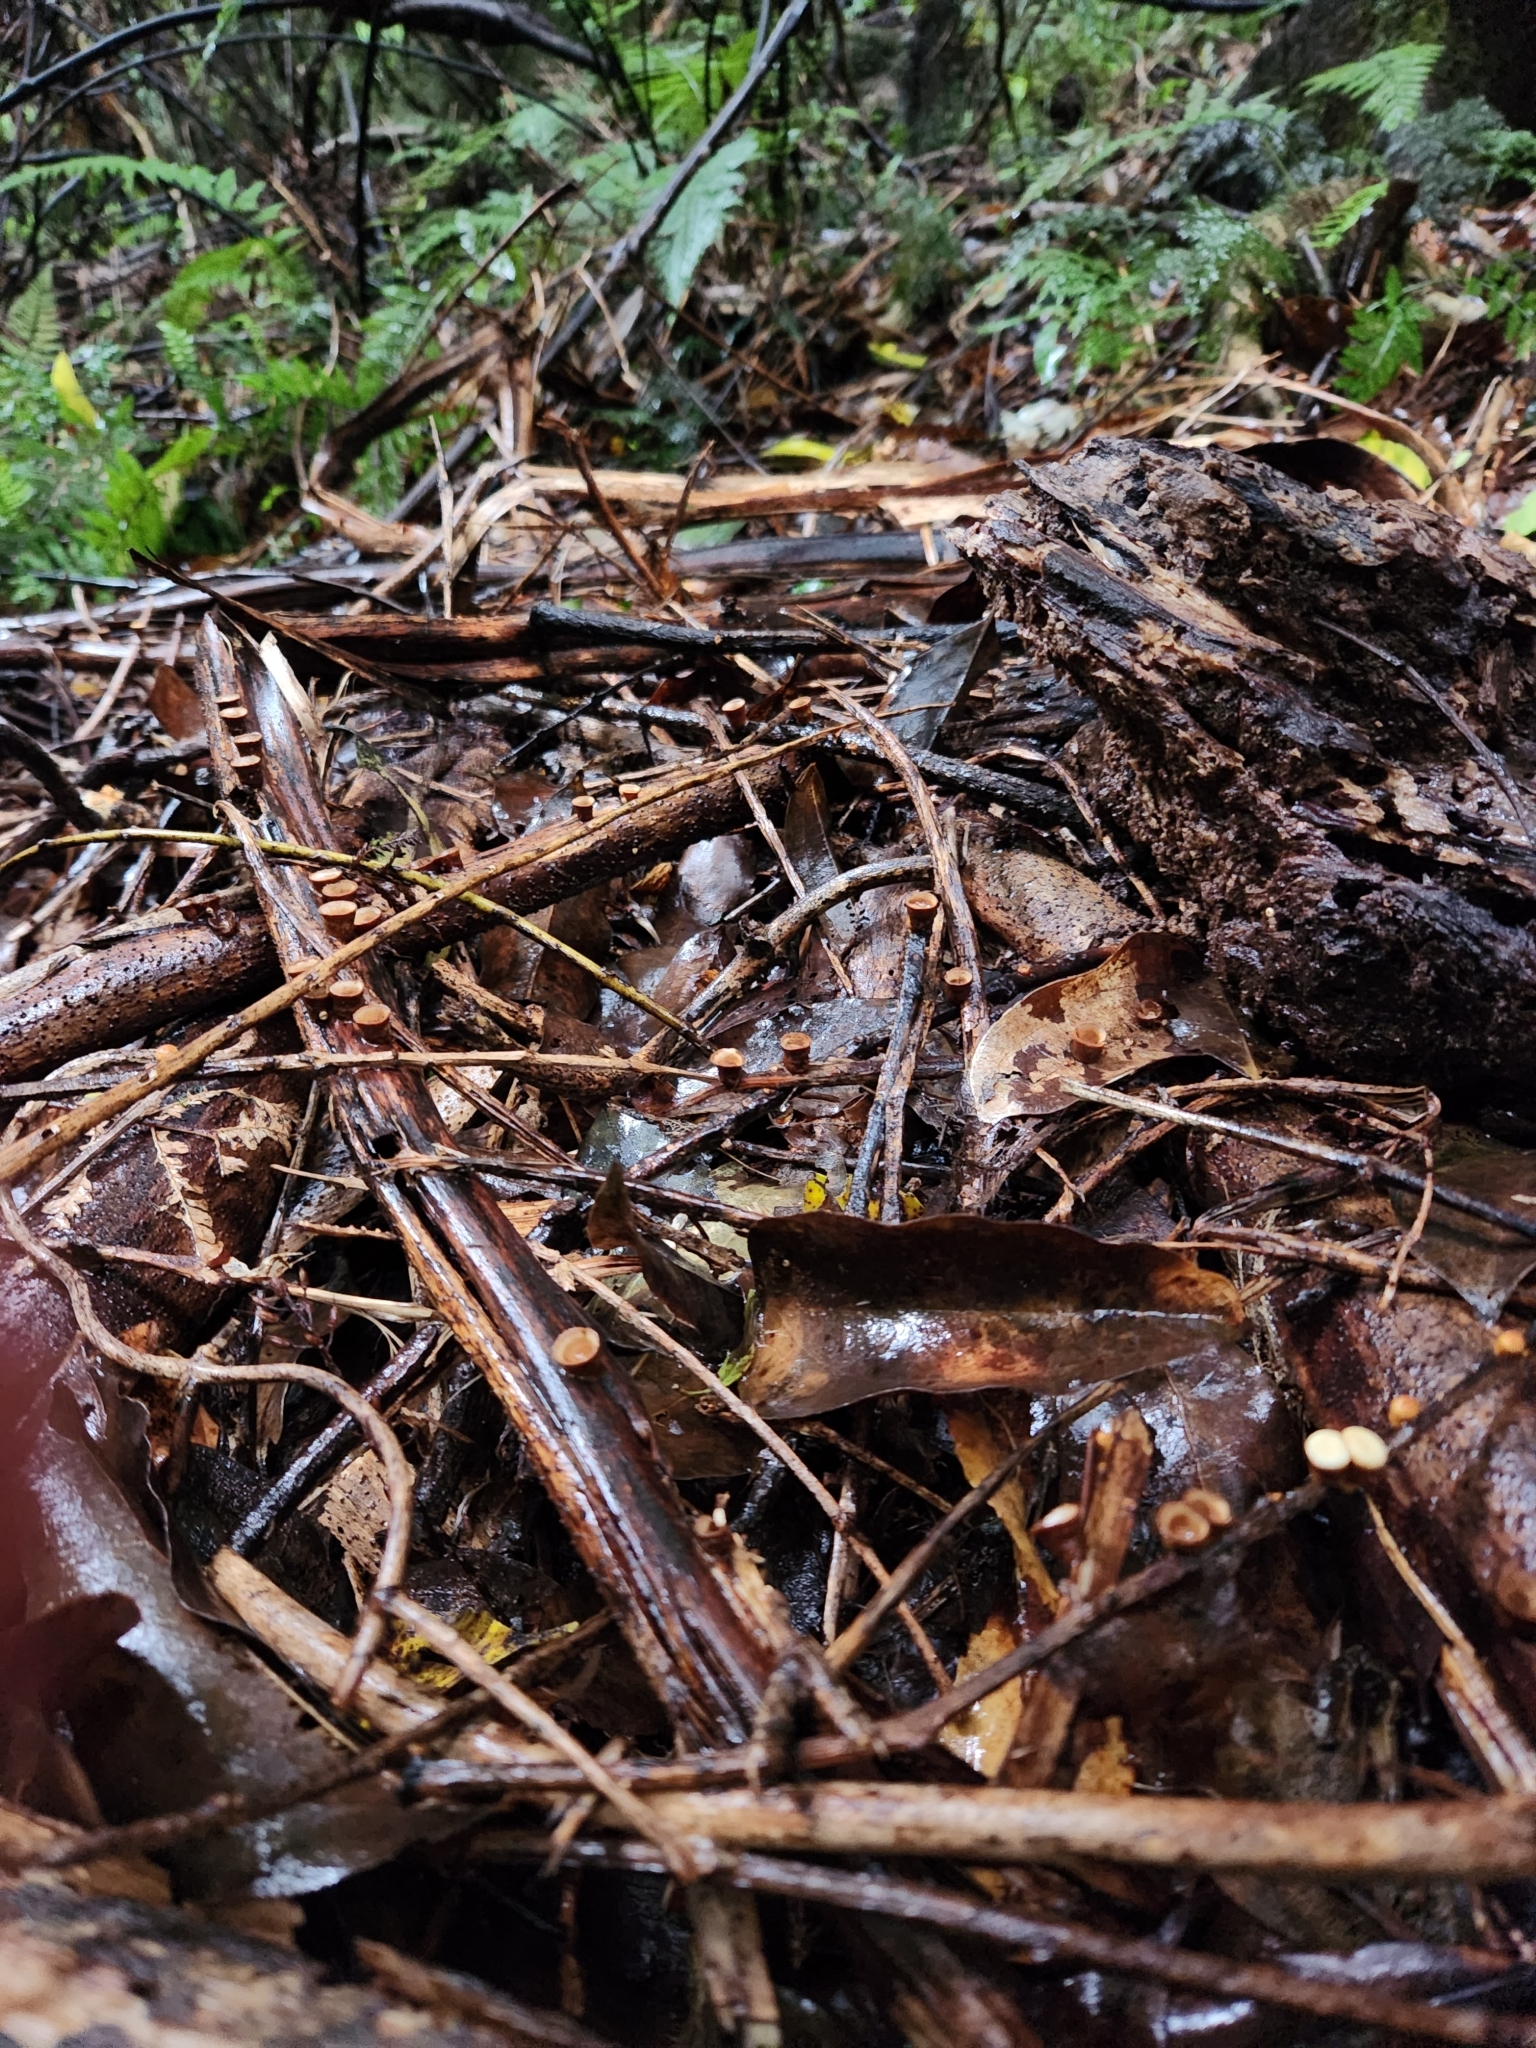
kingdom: Fungi
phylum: Basidiomycota
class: Agaricomycetes
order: Agaricales
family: Nidulariaceae
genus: Crucibulum
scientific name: Crucibulum simile
